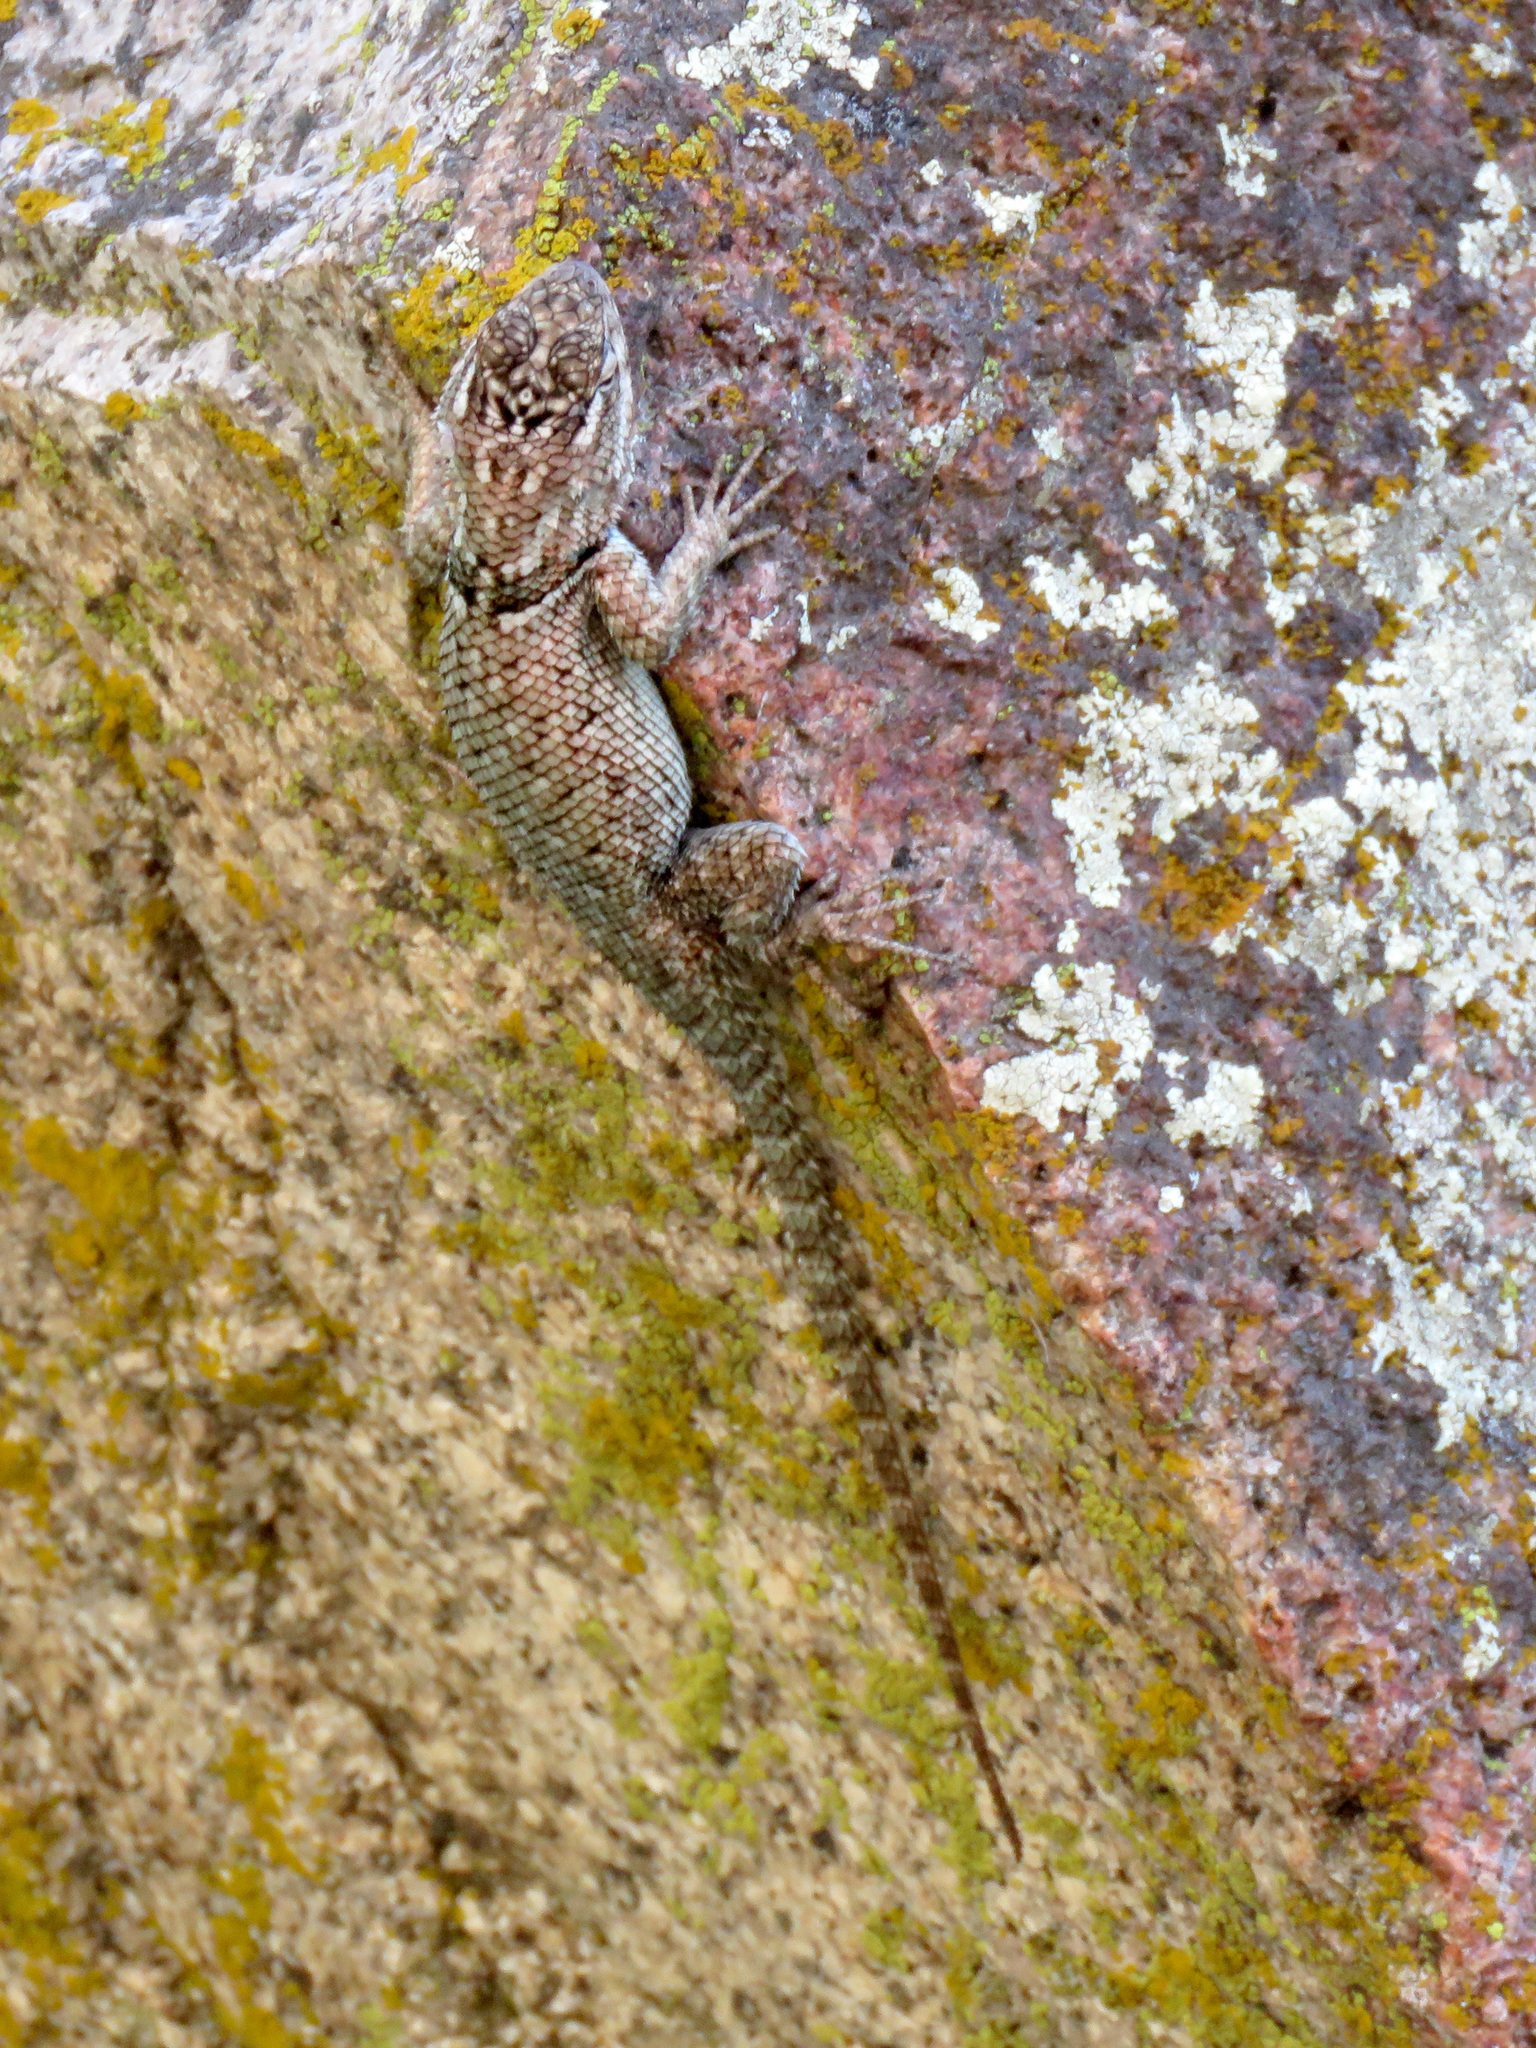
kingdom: Animalia
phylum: Chordata
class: Squamata
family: Phrynosomatidae
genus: Sceloporus
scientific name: Sceloporus jarrovii
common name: Yarrow's spiny lizard
